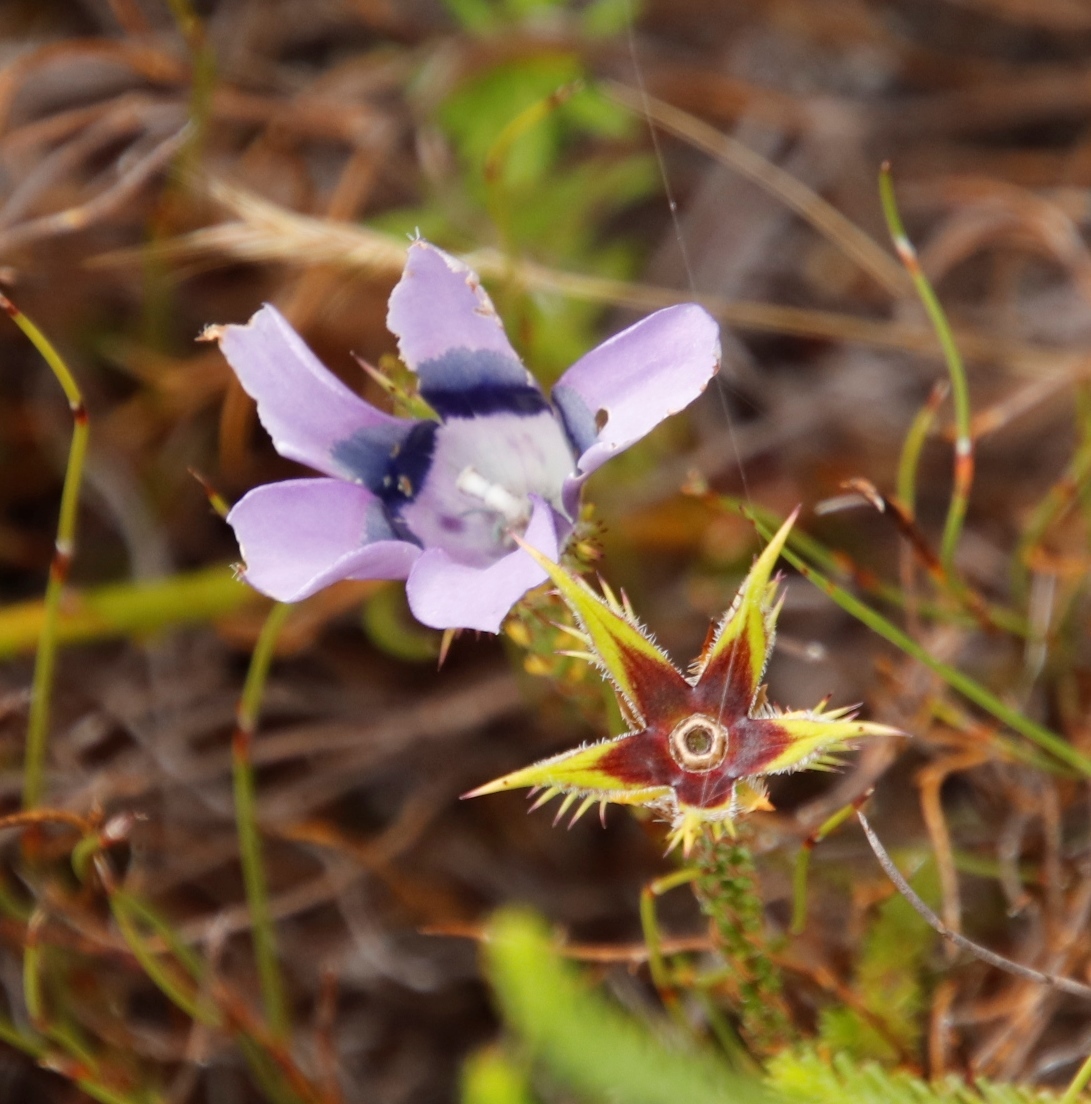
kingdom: Plantae
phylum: Tracheophyta
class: Magnoliopsida
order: Asterales
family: Campanulaceae
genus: Roella
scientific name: Roella ciliata
